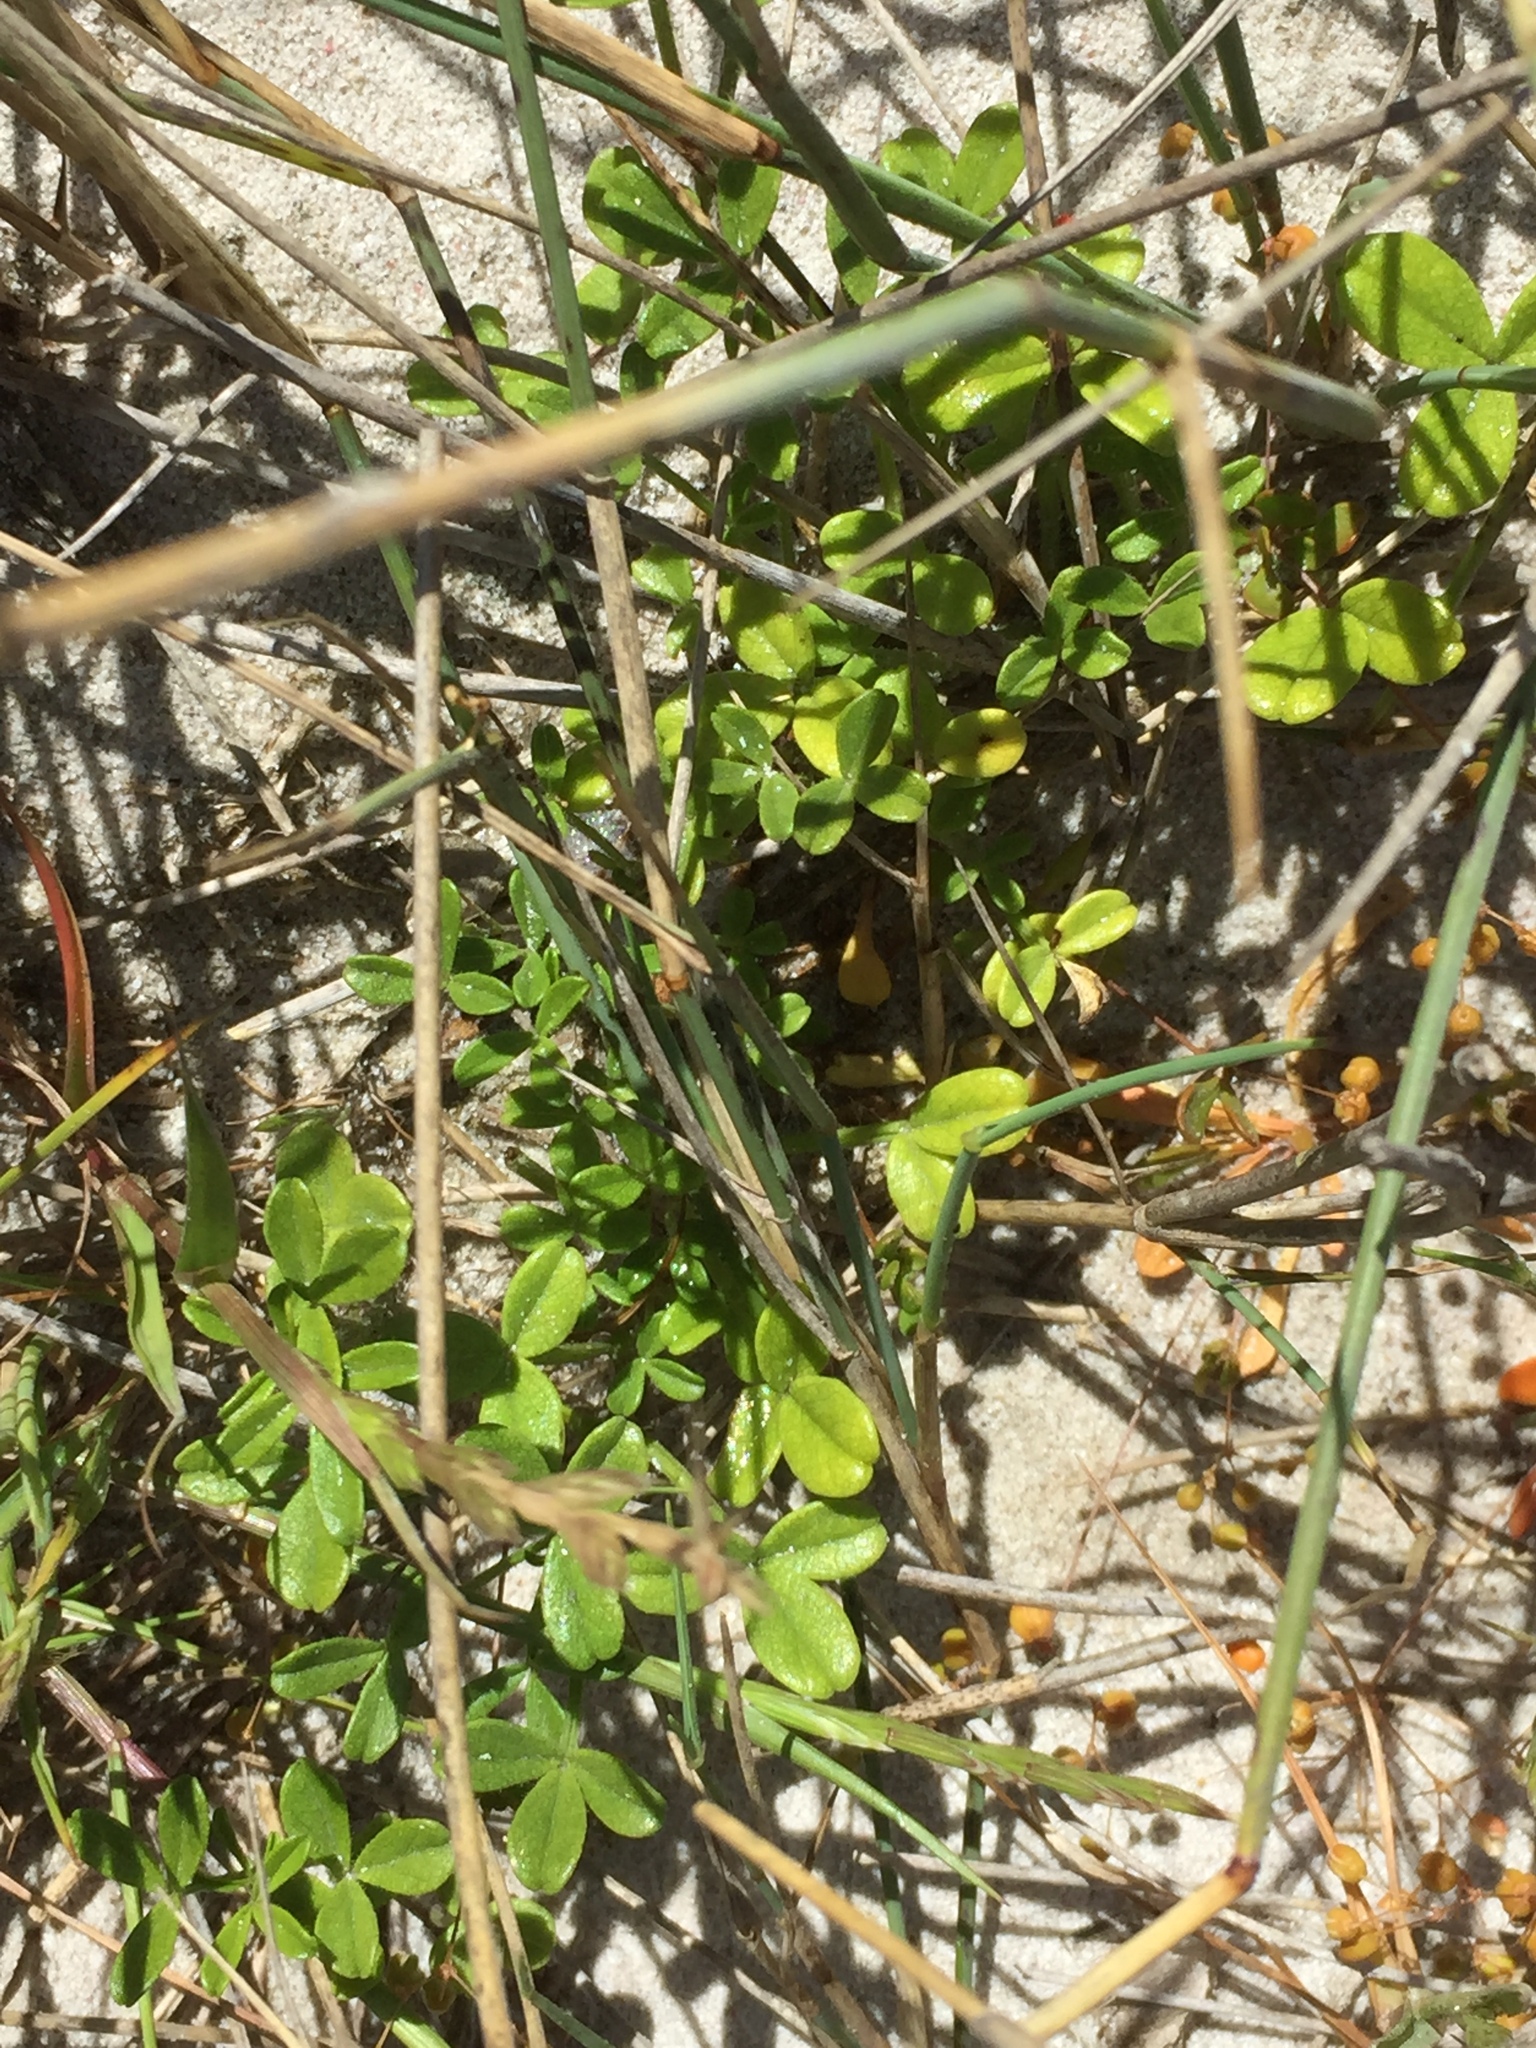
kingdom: Plantae
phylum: Tracheophyta
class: Magnoliopsida
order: Fabales
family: Fabaceae
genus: Psoralea
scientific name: Psoralea repens
